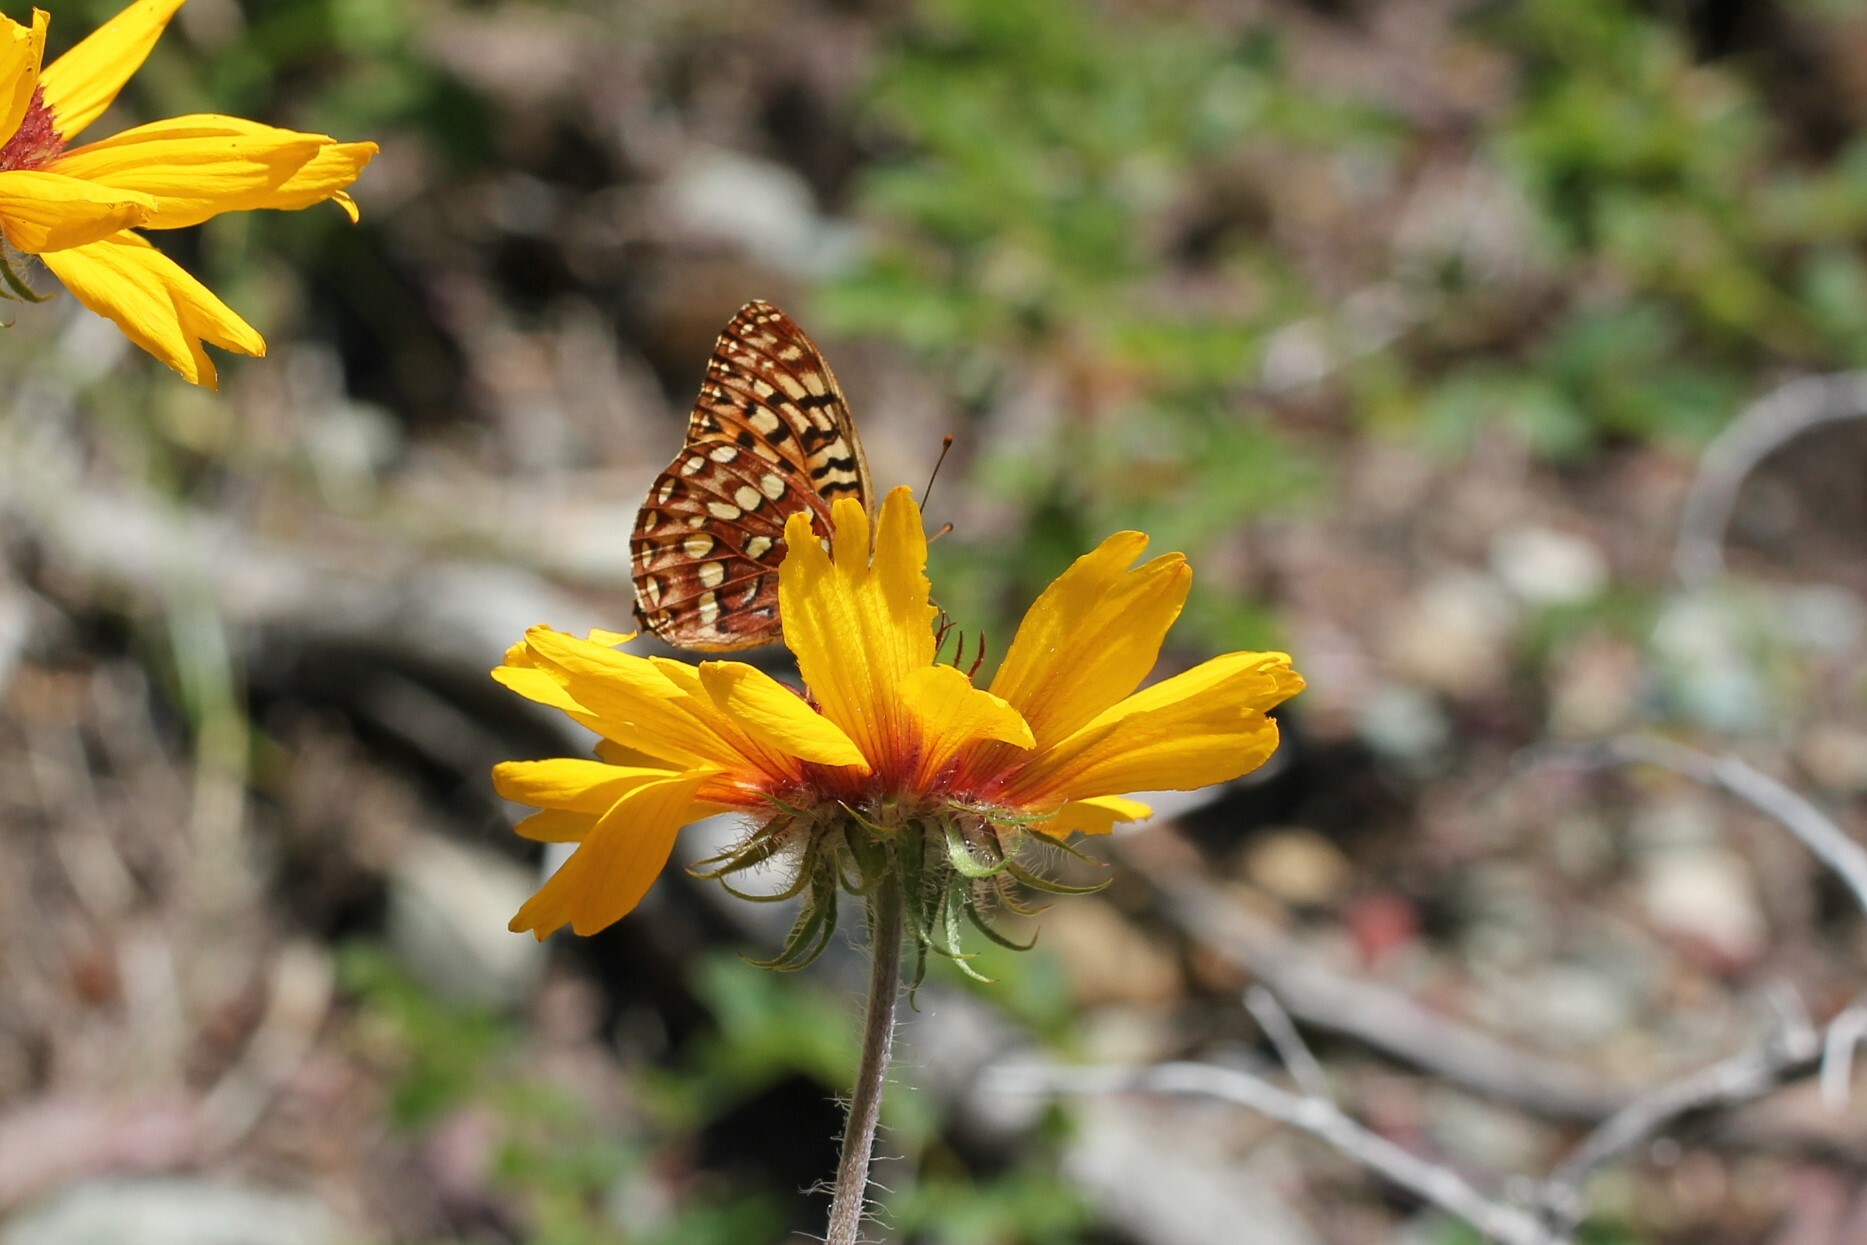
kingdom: Animalia
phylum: Arthropoda
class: Insecta
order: Lepidoptera
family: Nymphalidae
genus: Speyeria
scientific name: Speyeria hydaspe
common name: Hydaspe fritillary
